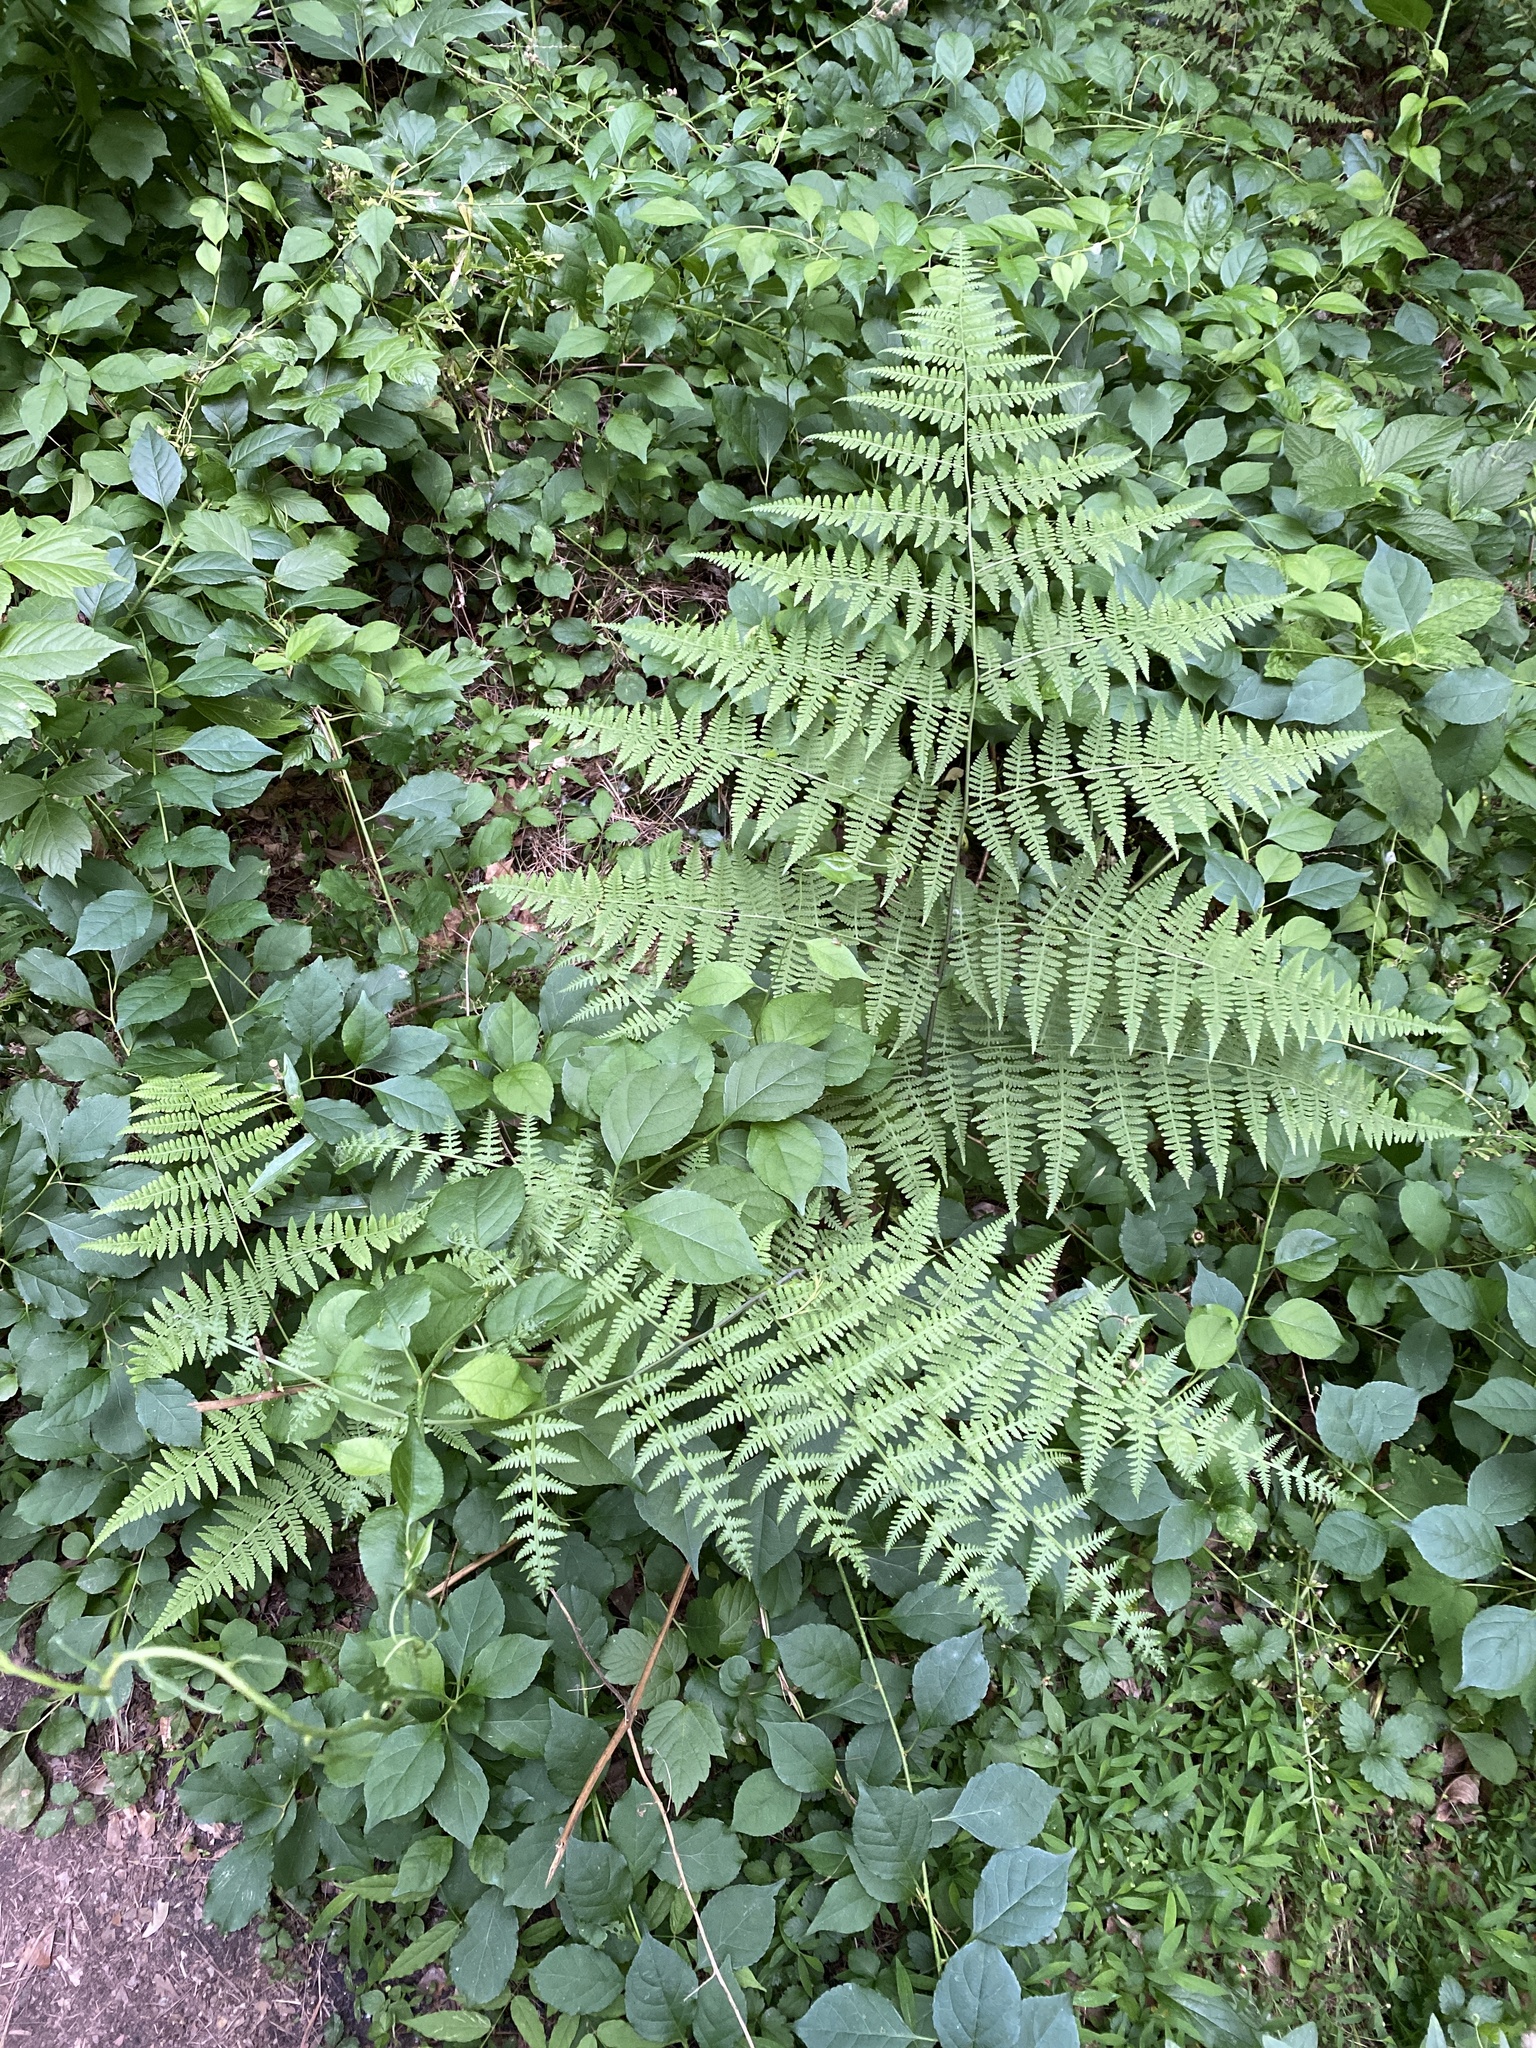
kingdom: Plantae
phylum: Tracheophyta
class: Polypodiopsida
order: Polypodiales
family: Thelypteridaceae
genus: Macrothelypteris
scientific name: Macrothelypteris torresiana
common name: Swordfern
